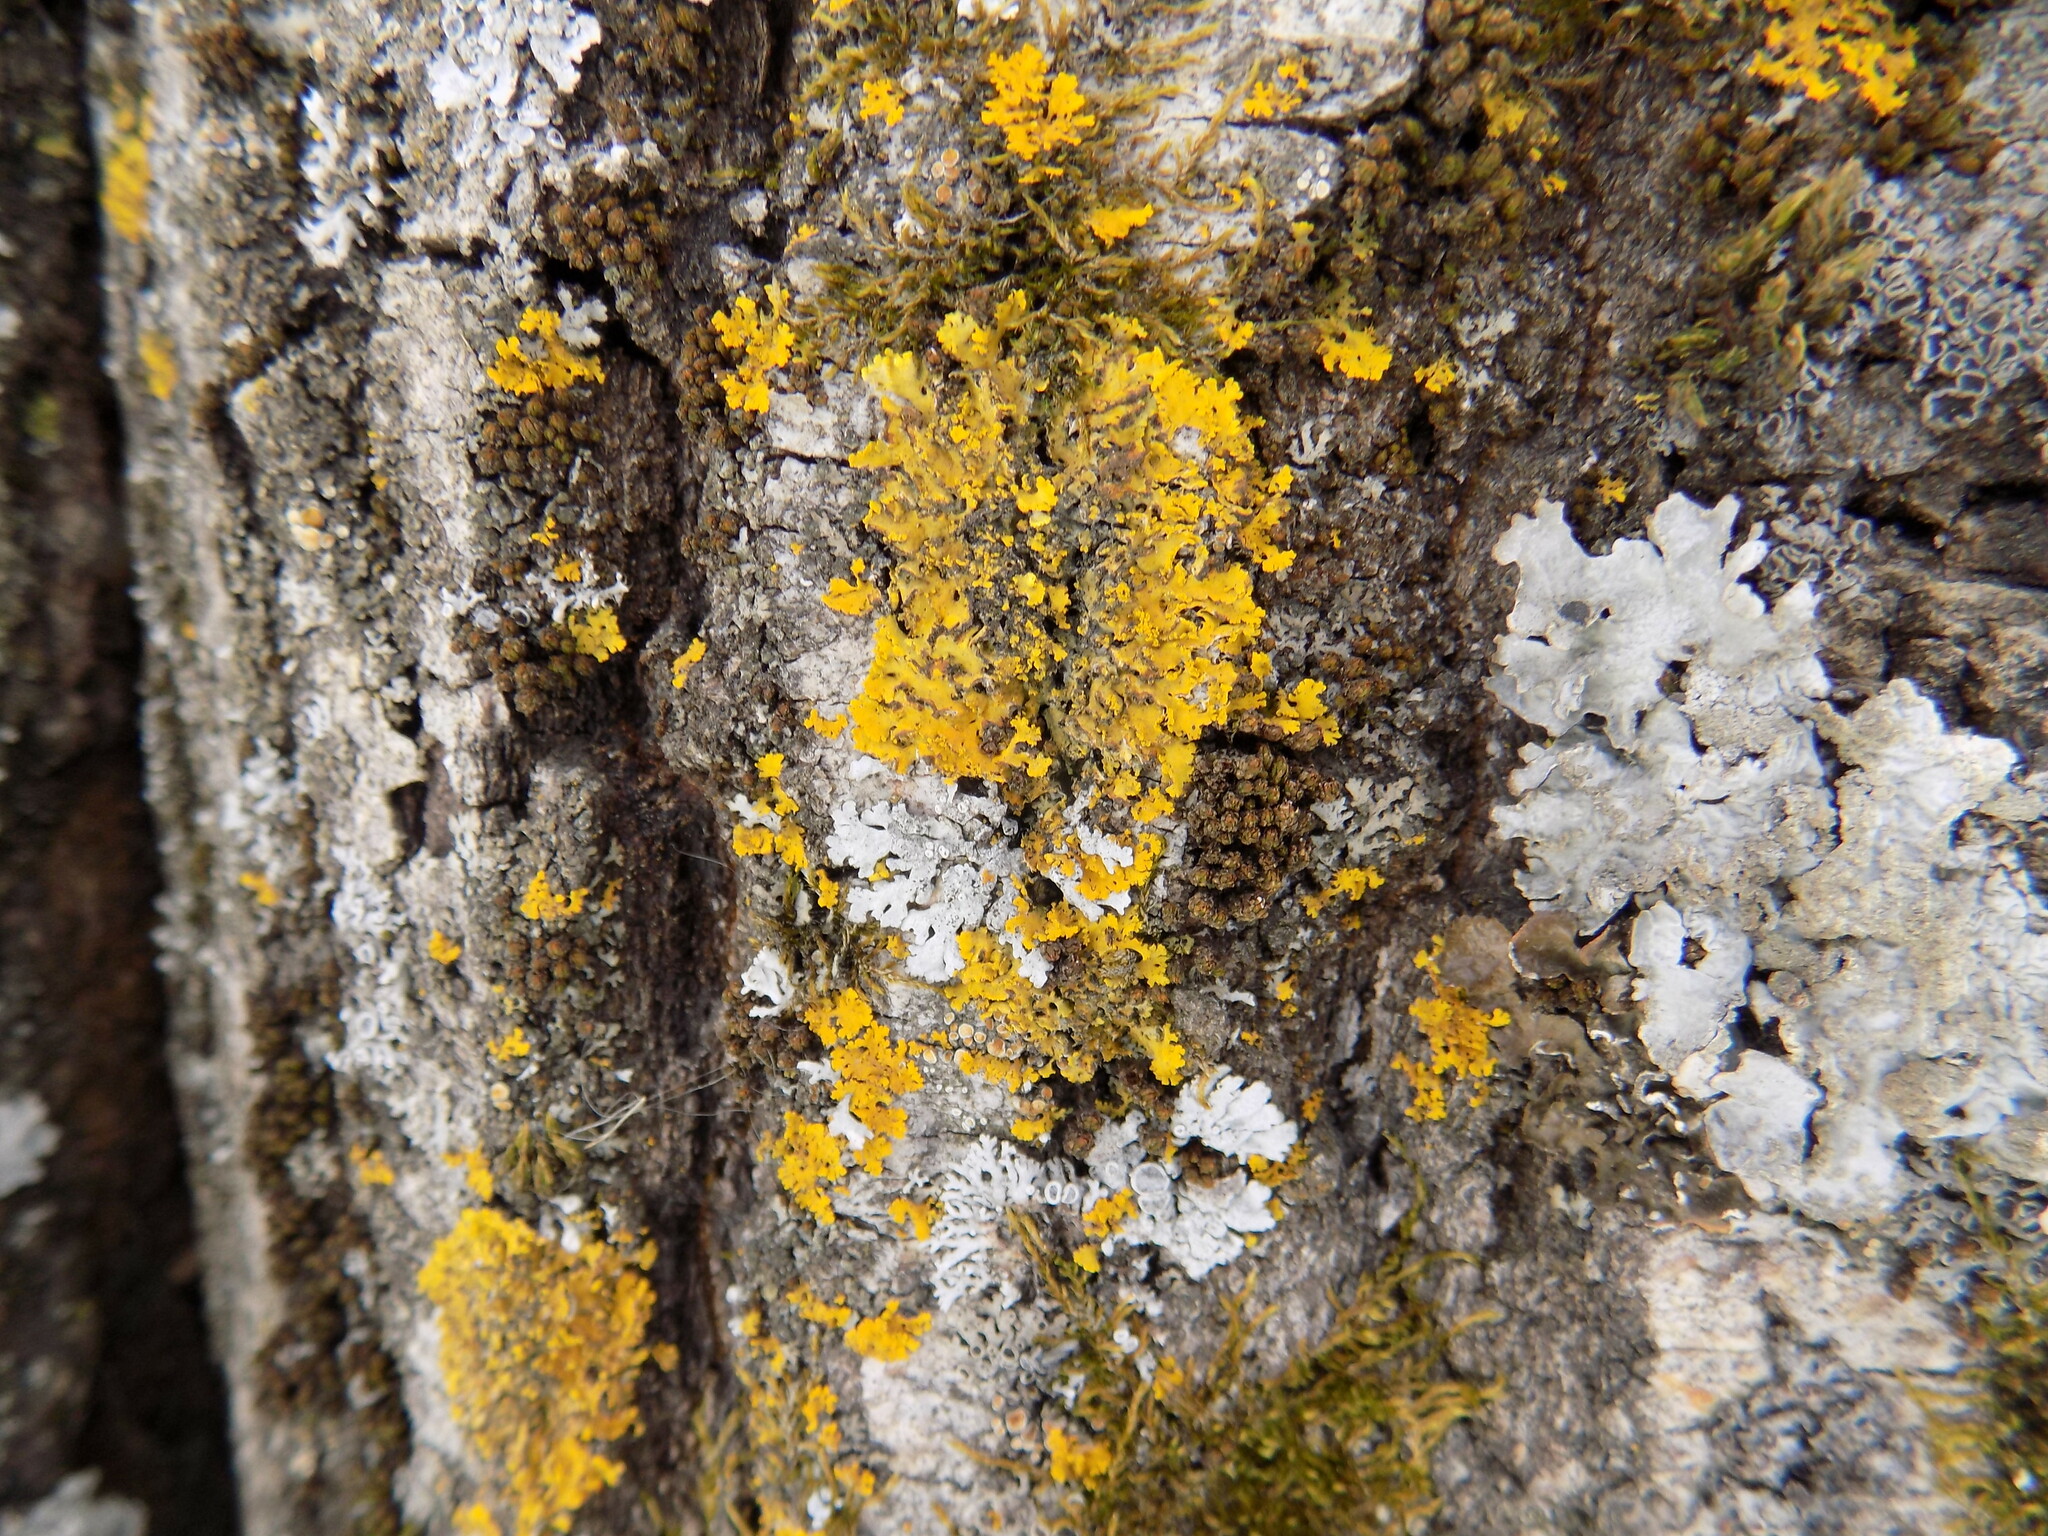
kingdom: Fungi
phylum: Ascomycota
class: Lecanoromycetes
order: Teloschistales
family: Teloschistaceae
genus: Xanthoria
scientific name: Xanthoria parietina
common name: Common orange lichen
